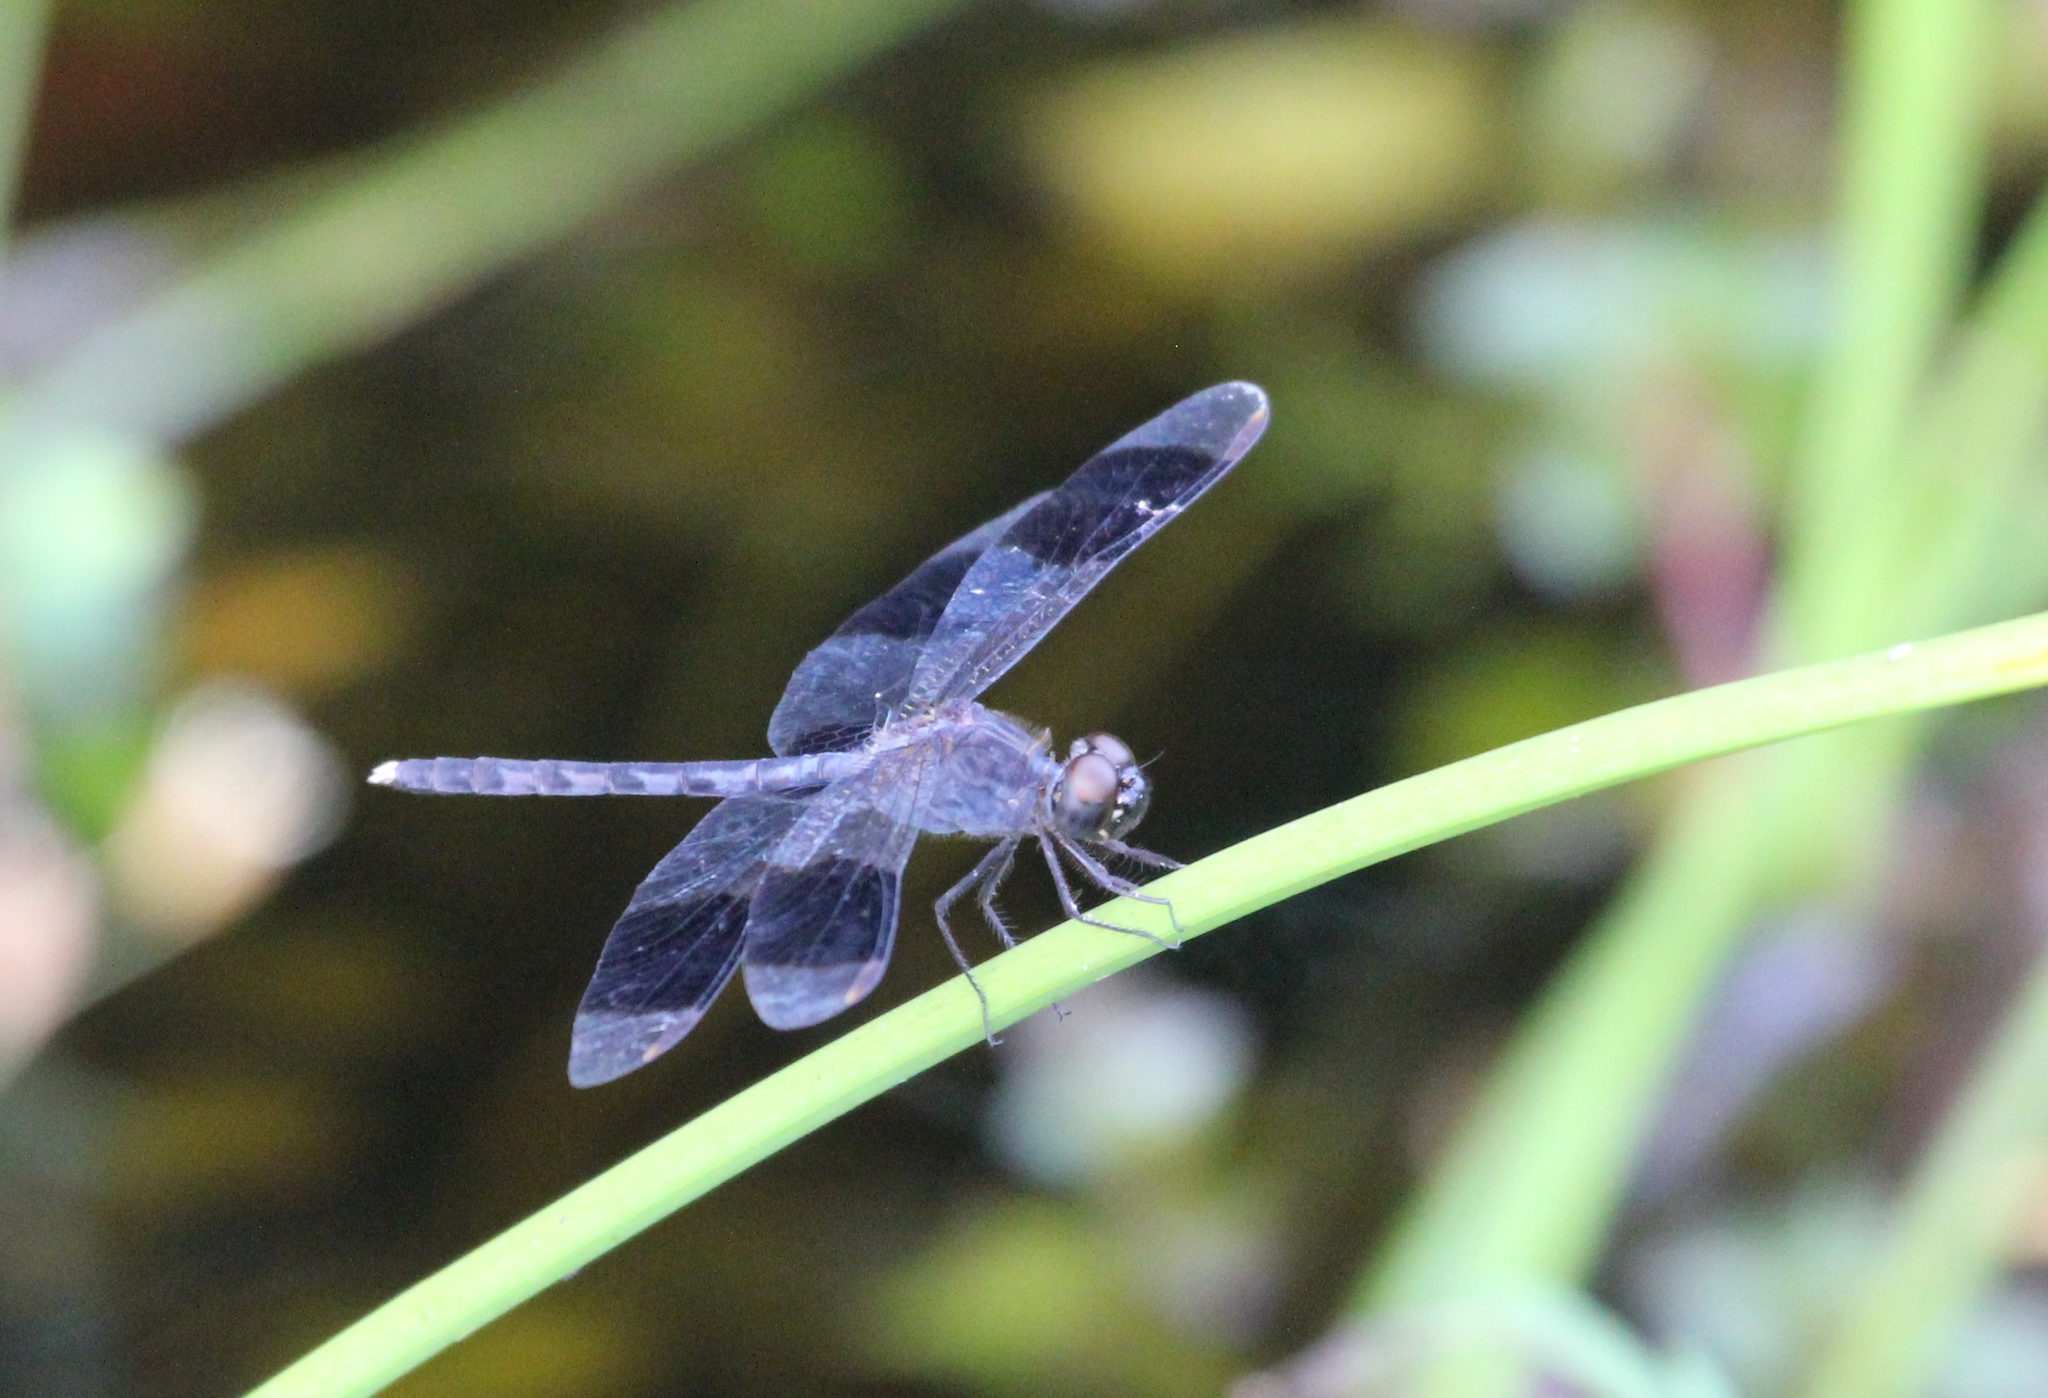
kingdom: Animalia
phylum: Arthropoda
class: Insecta
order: Odonata
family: Libellulidae
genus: Erythrodiplax
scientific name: Erythrodiplax umbrata
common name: Band-winged dragonlet
